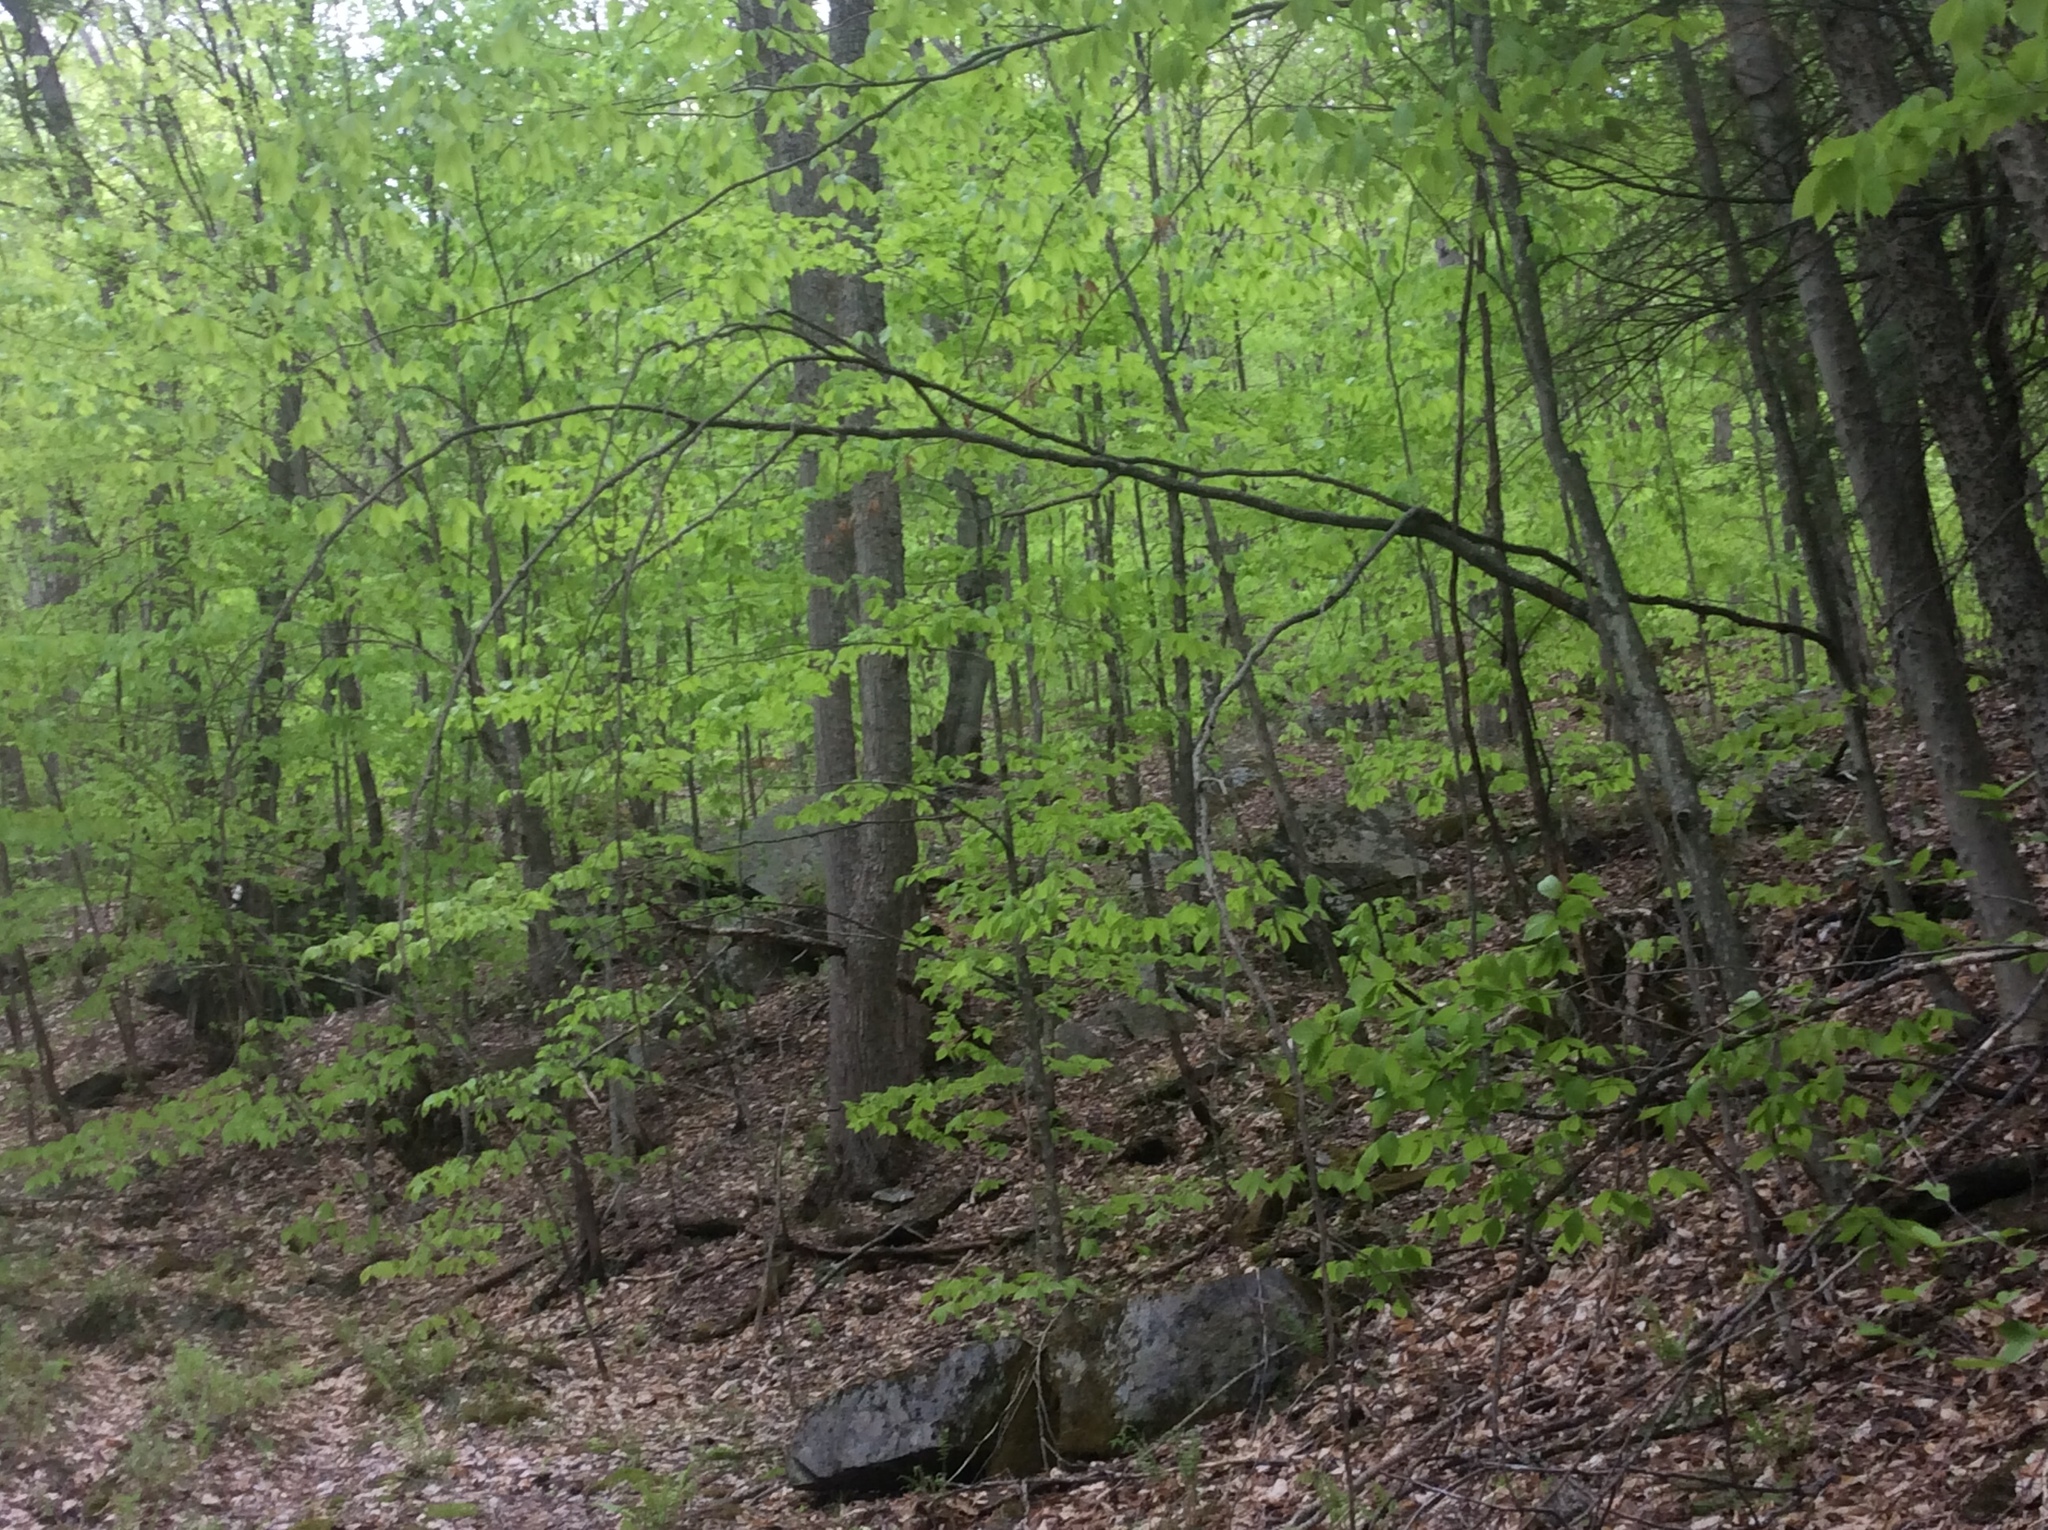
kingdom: Plantae
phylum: Tracheophyta
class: Magnoliopsida
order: Malvales
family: Malvaceae
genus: Tilia
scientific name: Tilia americana
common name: Basswood
